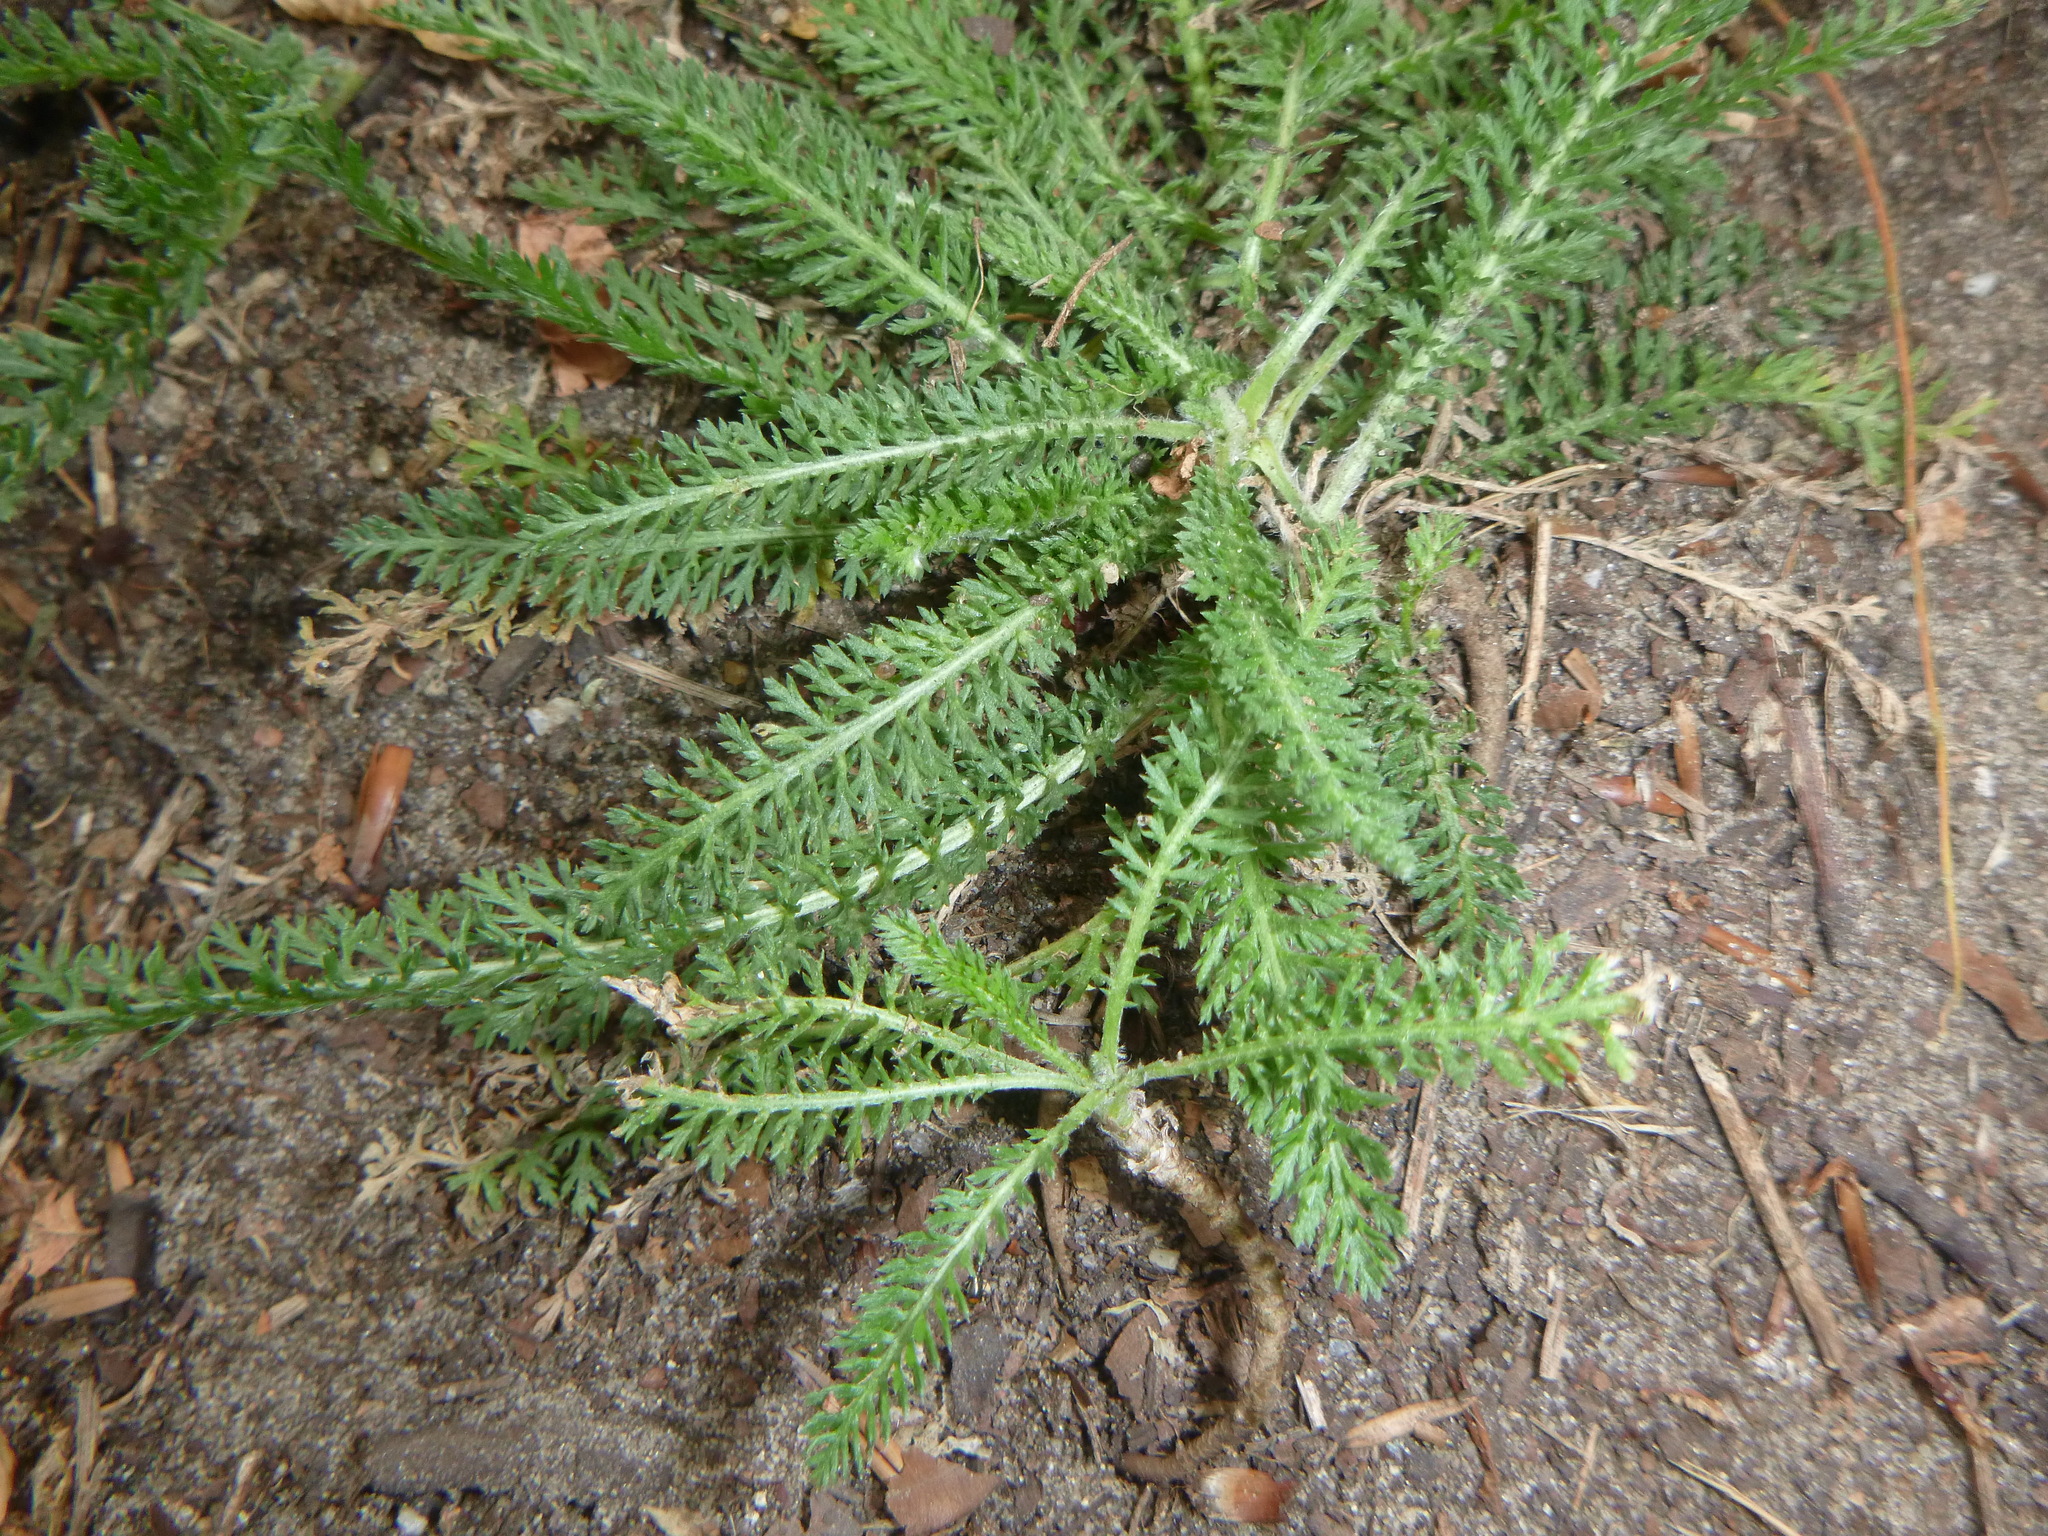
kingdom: Plantae
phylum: Tracheophyta
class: Magnoliopsida
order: Asterales
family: Asteraceae
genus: Achillea
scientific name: Achillea millefolium
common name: Yarrow
